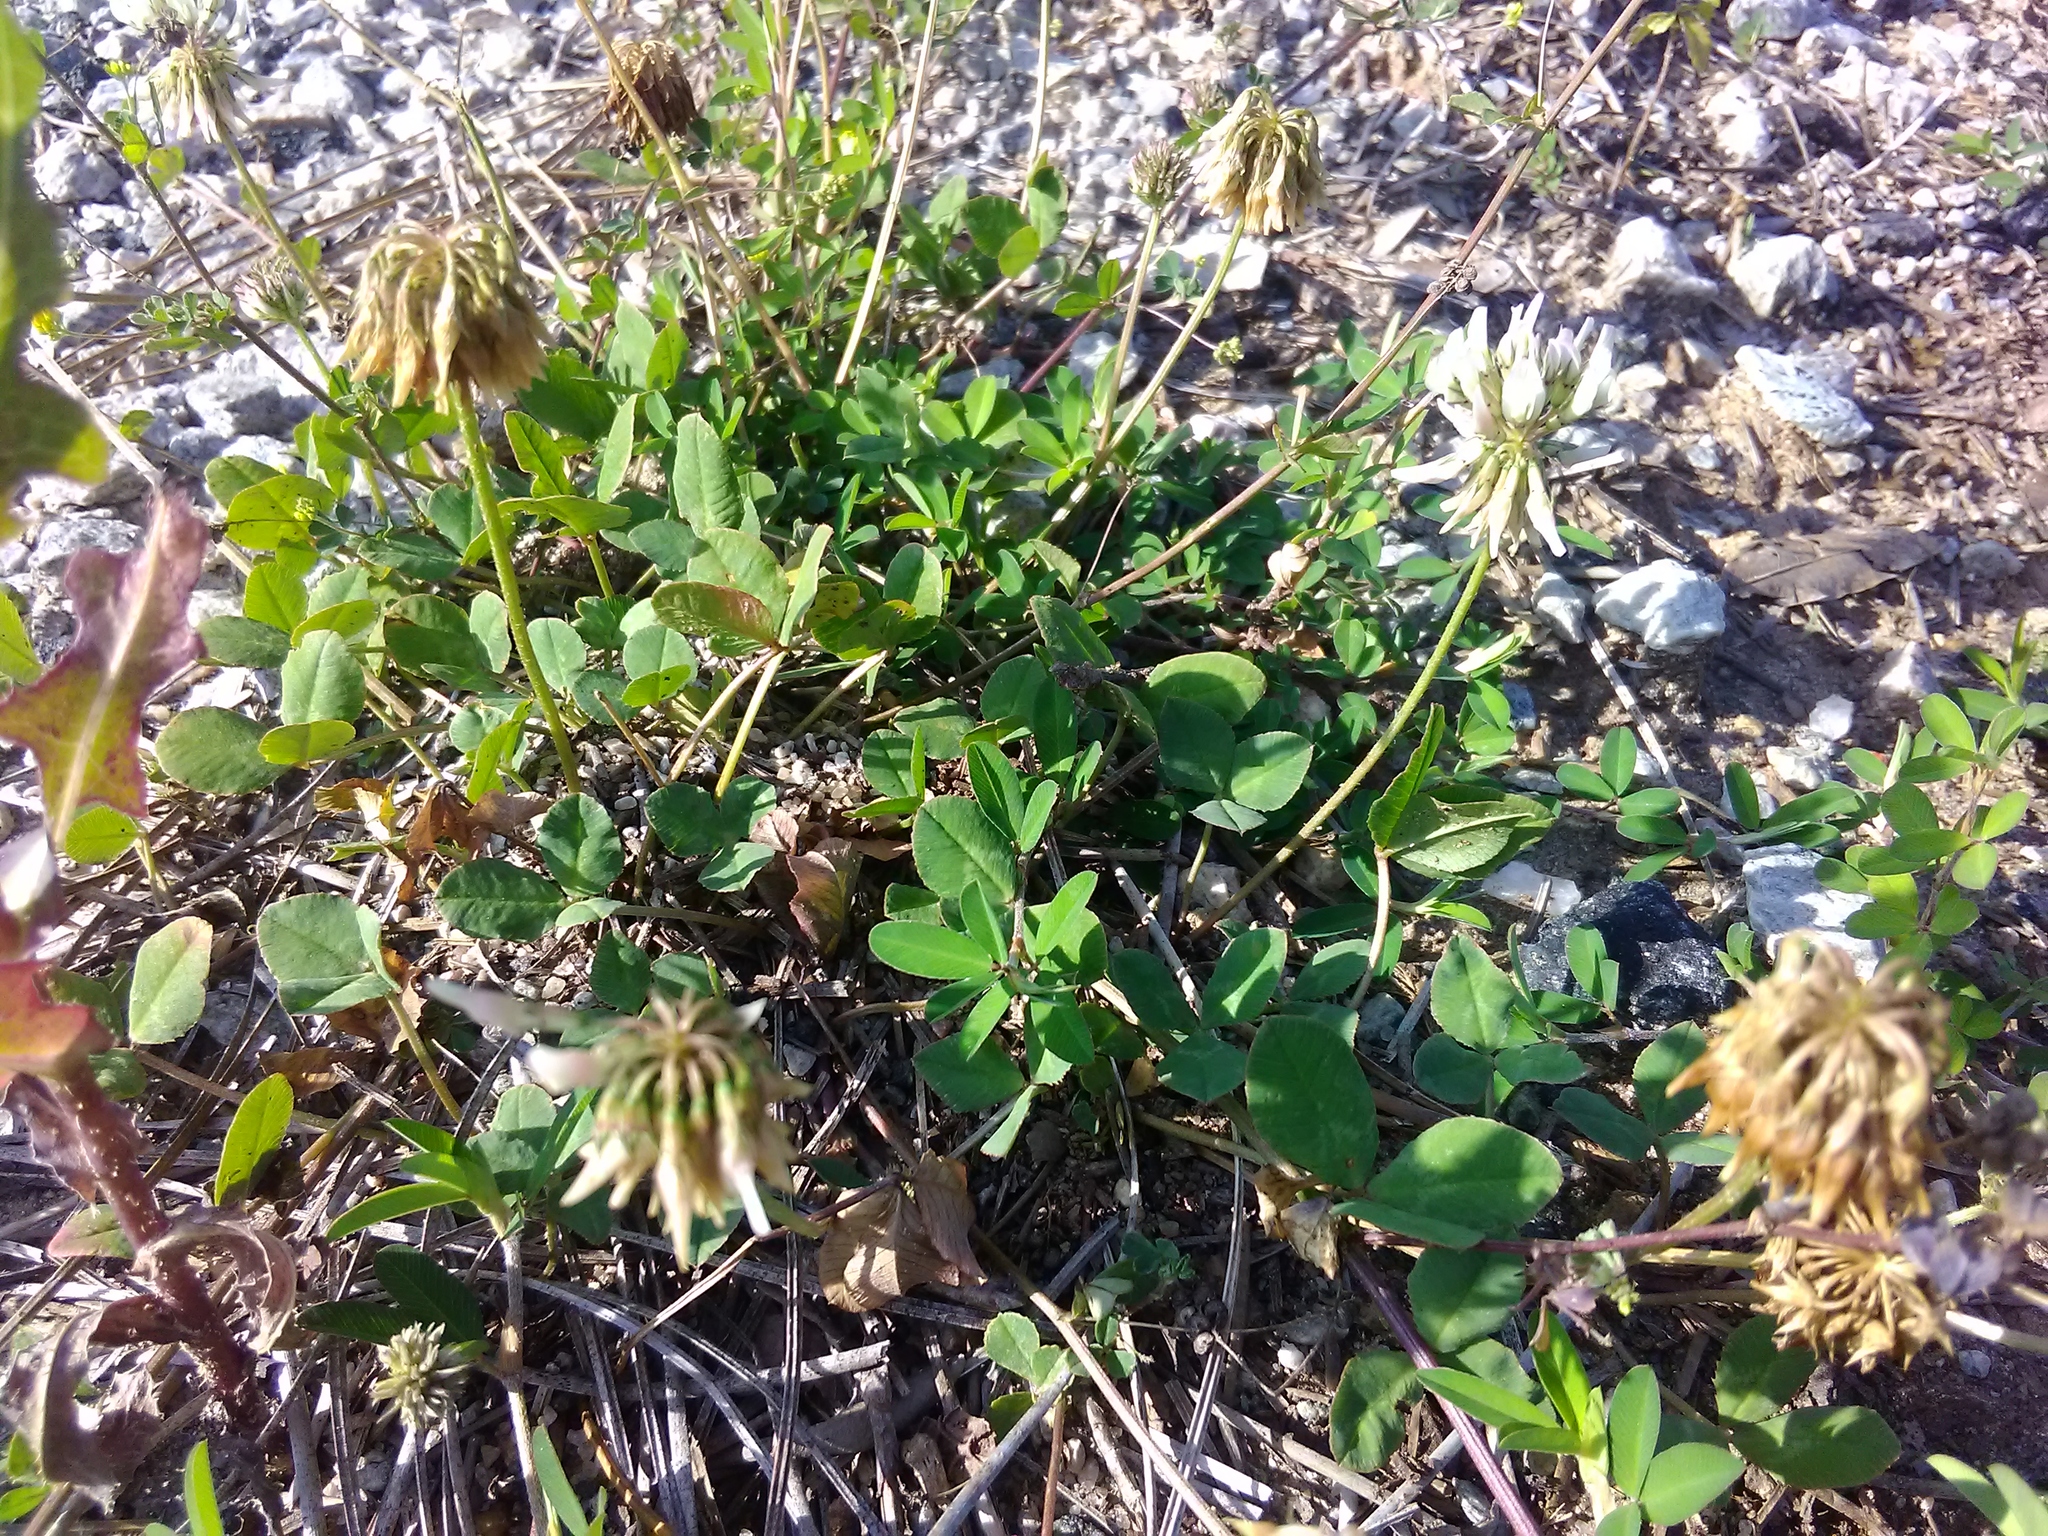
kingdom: Plantae
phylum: Tracheophyta
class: Magnoliopsida
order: Fabales
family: Fabaceae
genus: Trifolium
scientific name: Trifolium repens
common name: White clover
